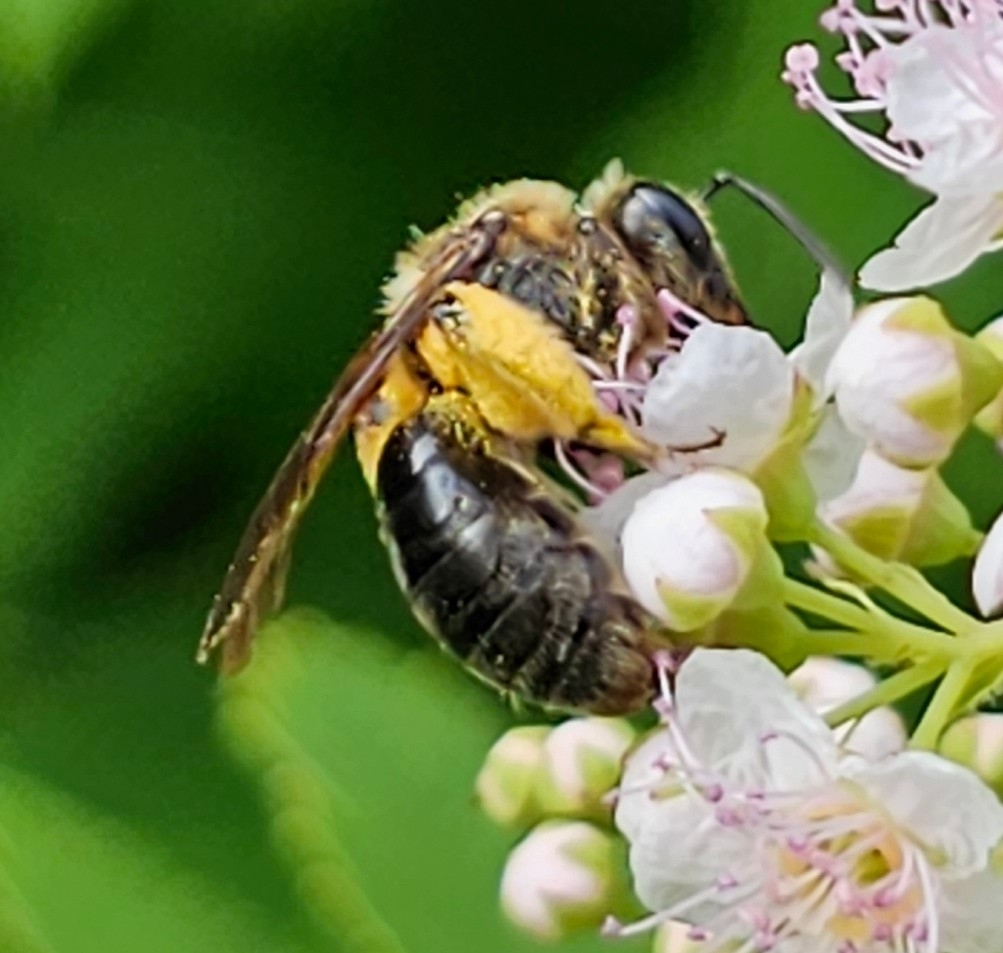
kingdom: Animalia
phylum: Arthropoda
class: Insecta
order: Hymenoptera
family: Andrenidae
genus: Andrena
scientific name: Andrena crataegi
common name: Hawthorn mining bee
